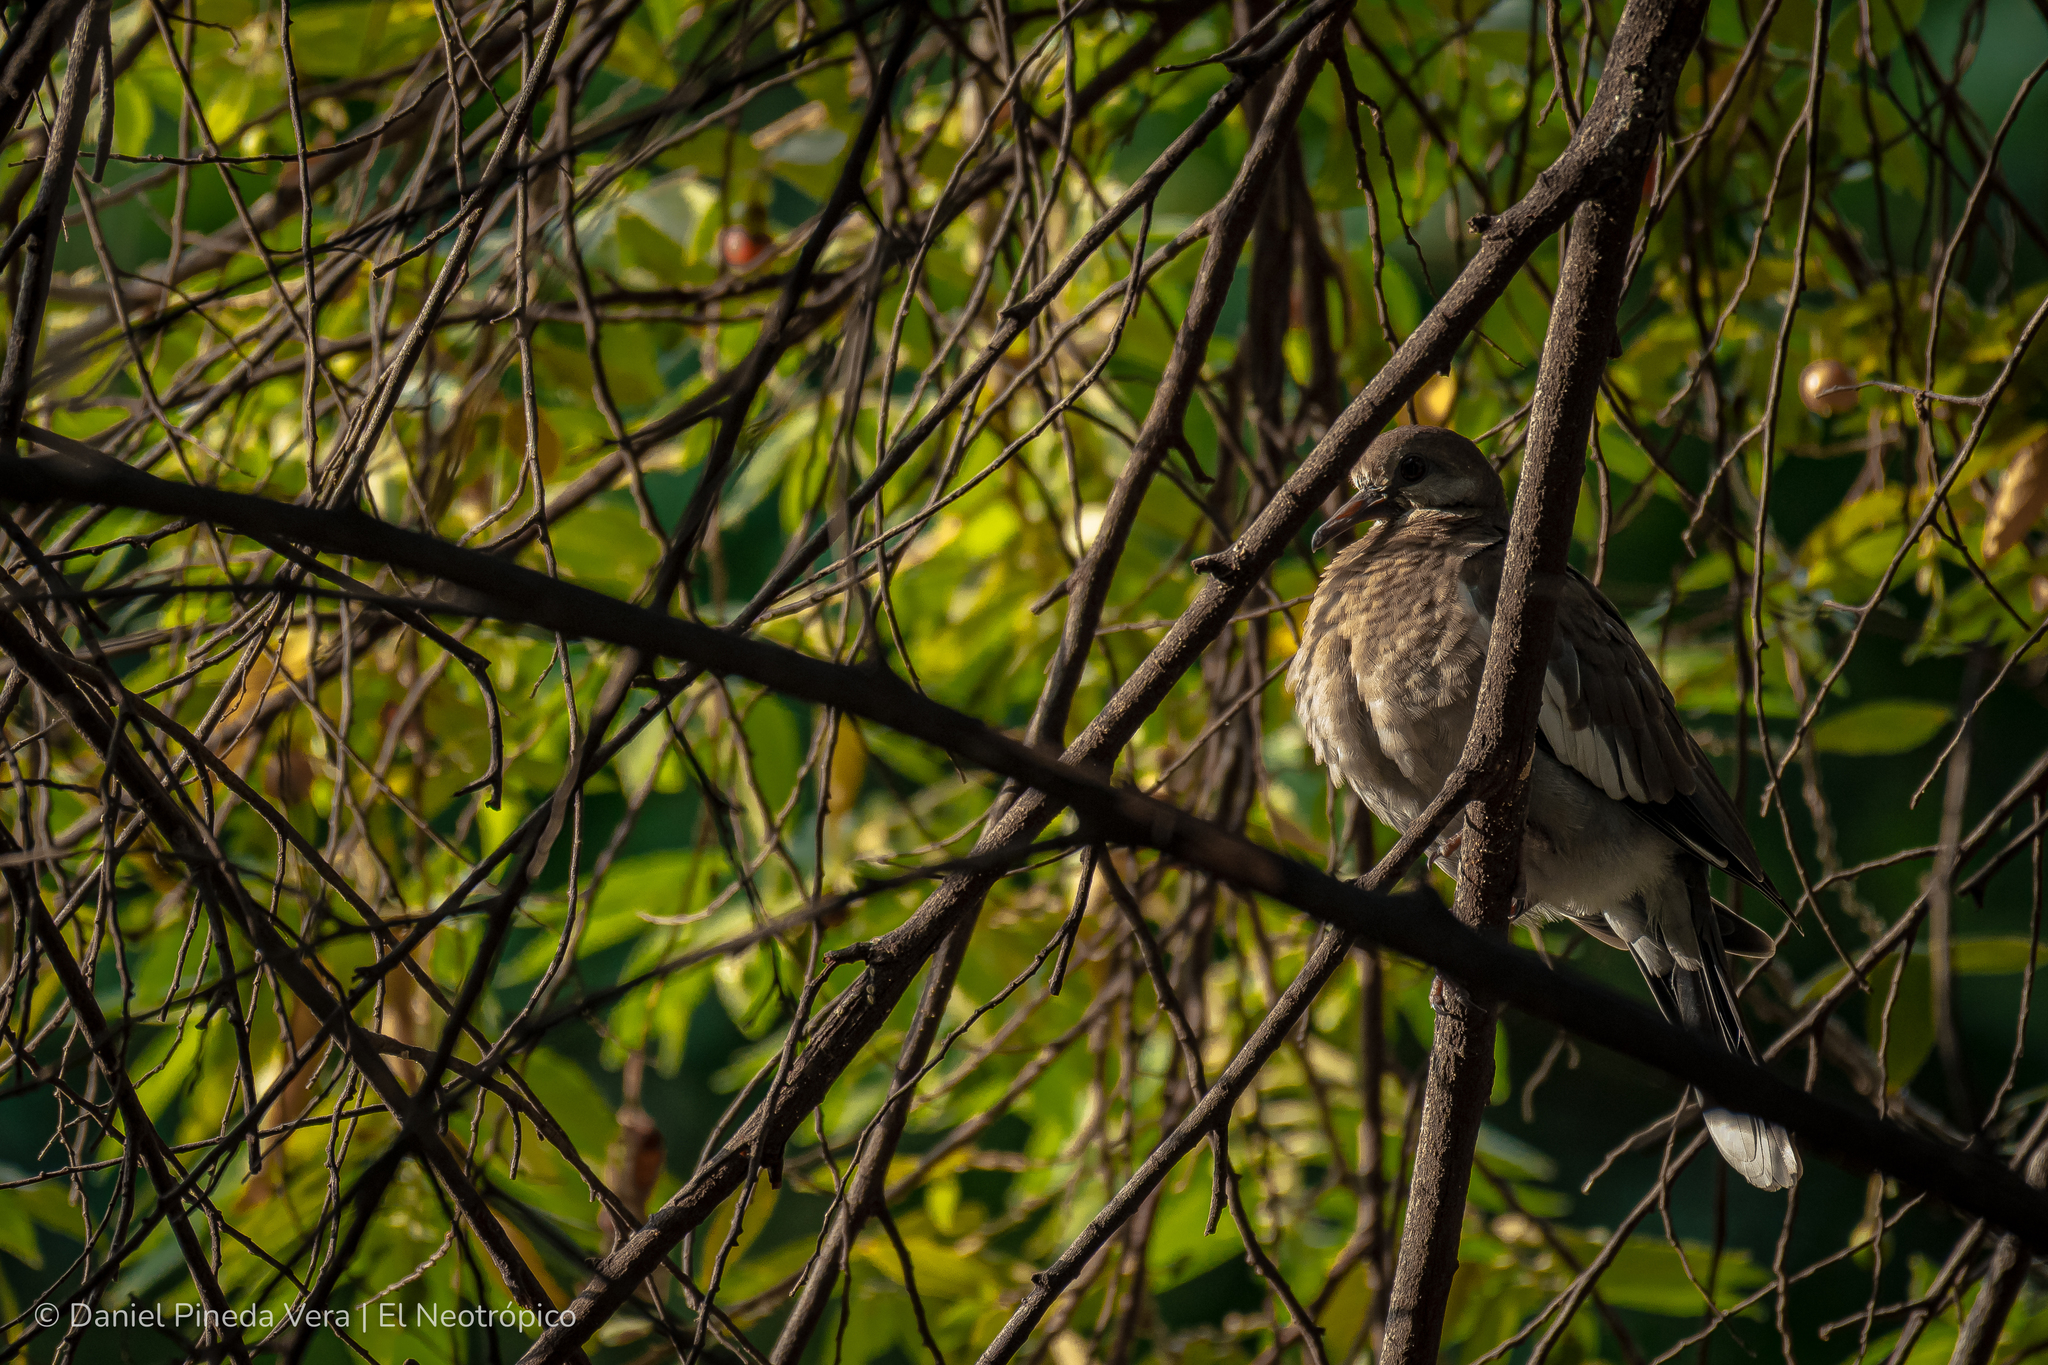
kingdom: Animalia
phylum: Chordata
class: Aves
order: Columbiformes
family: Columbidae
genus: Zenaida
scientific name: Zenaida asiatica
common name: White-winged dove
